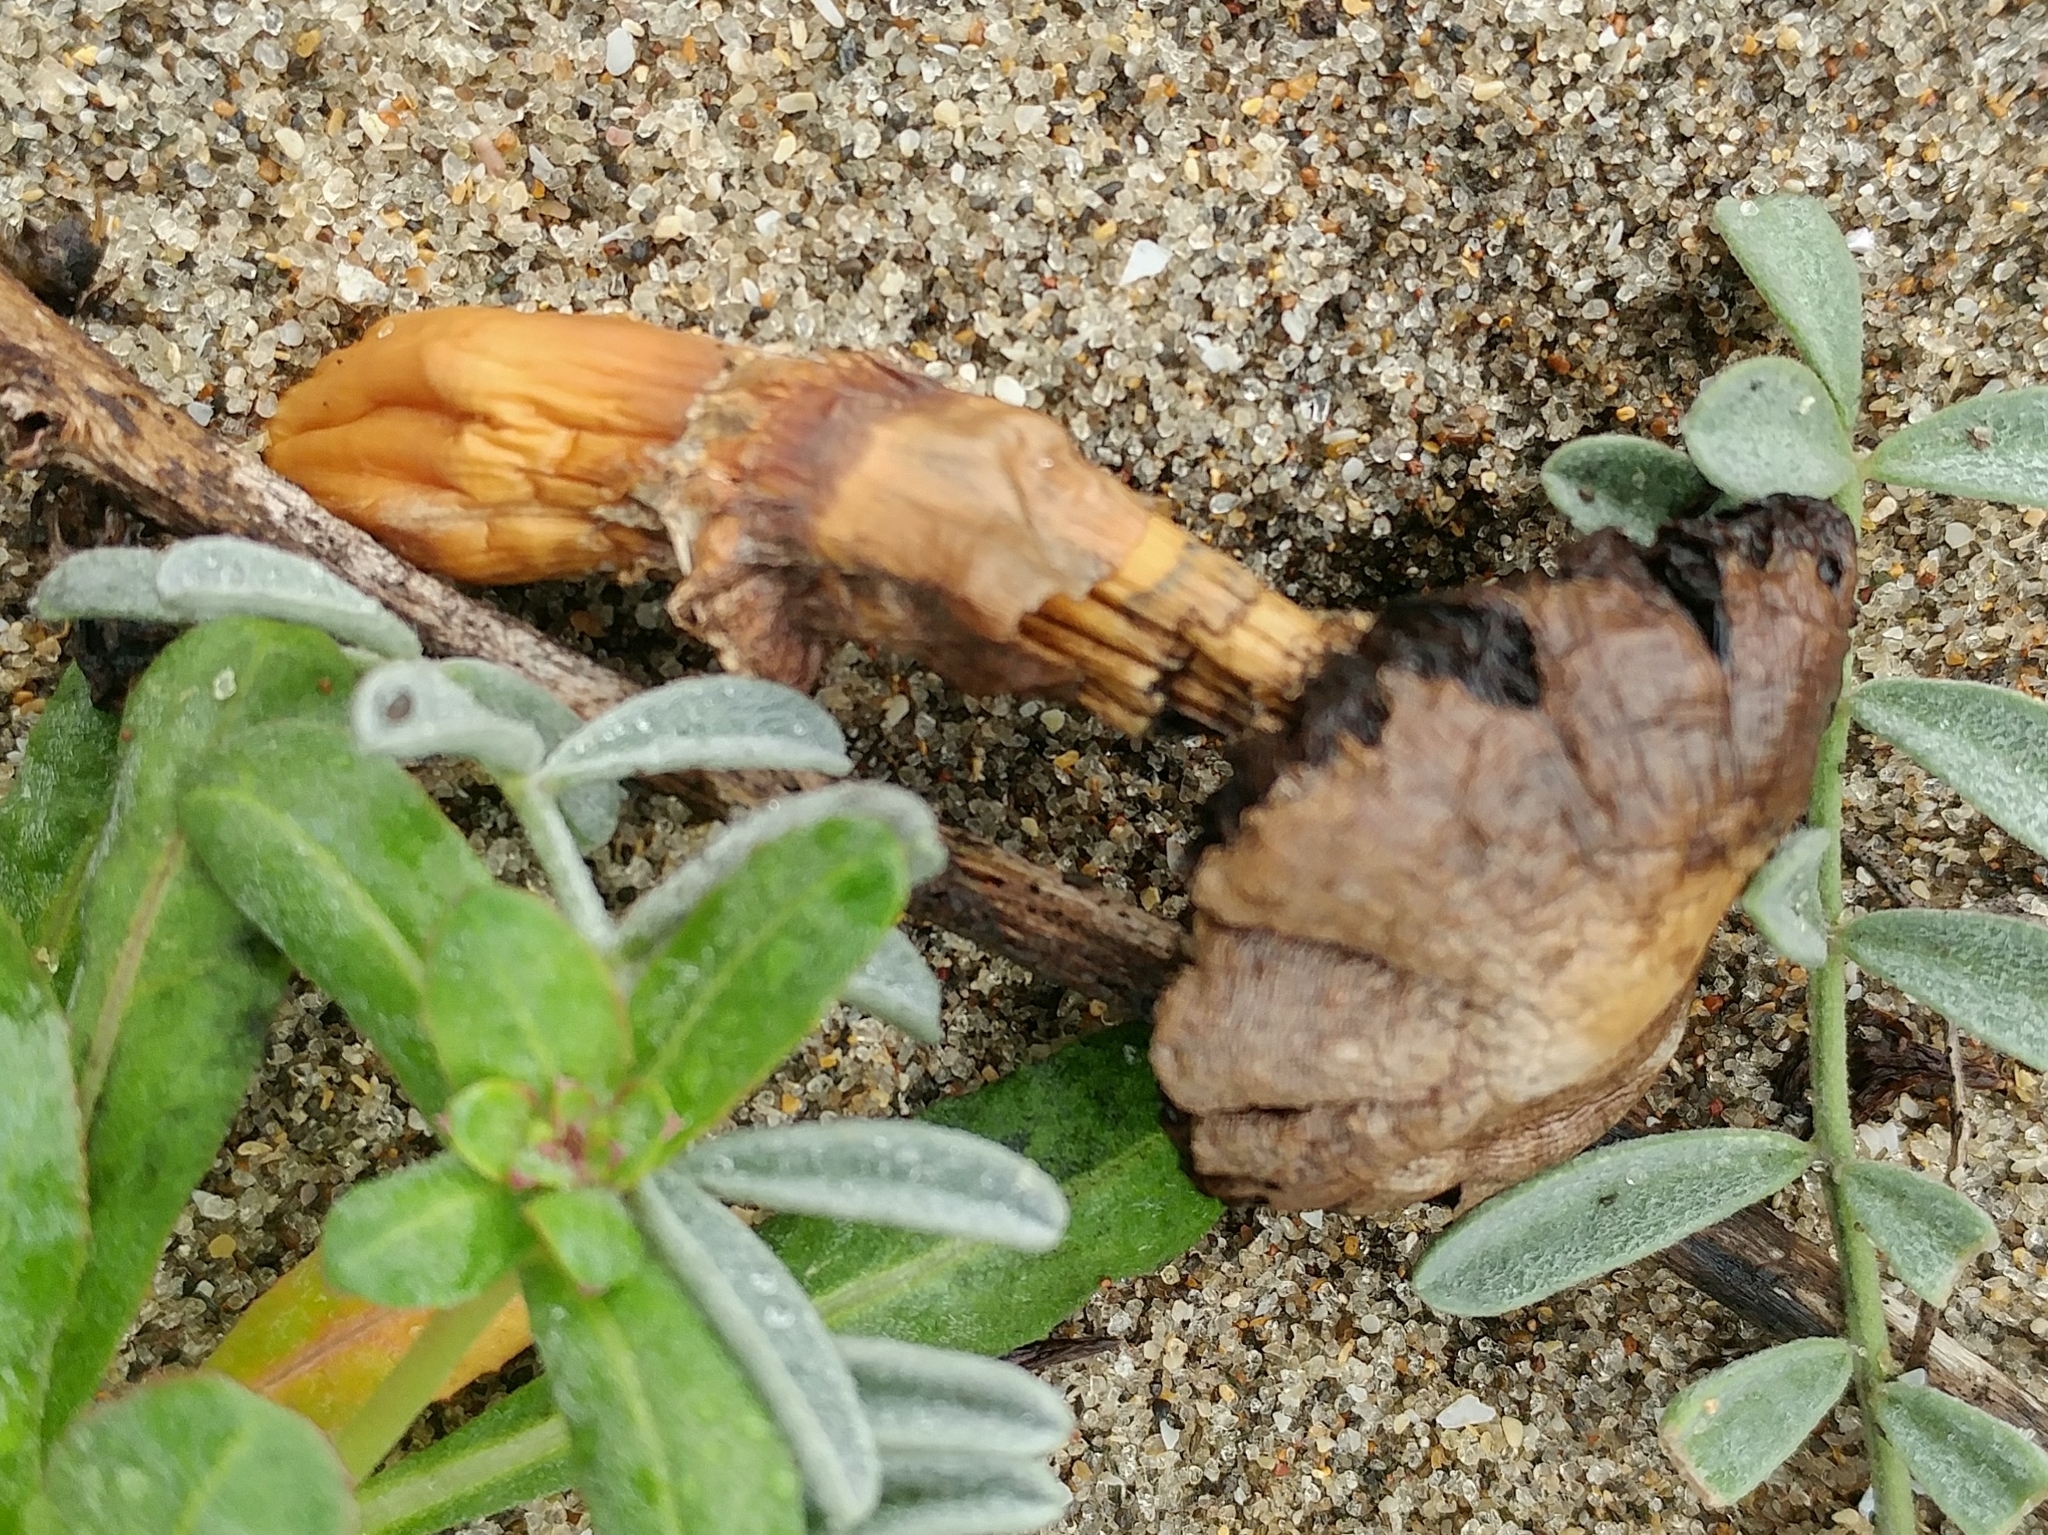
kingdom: Fungi
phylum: Basidiomycota
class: Agaricomycetes
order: Agaricales
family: Agaricaceae
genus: Agaricus
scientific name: Agaricus zelleri
